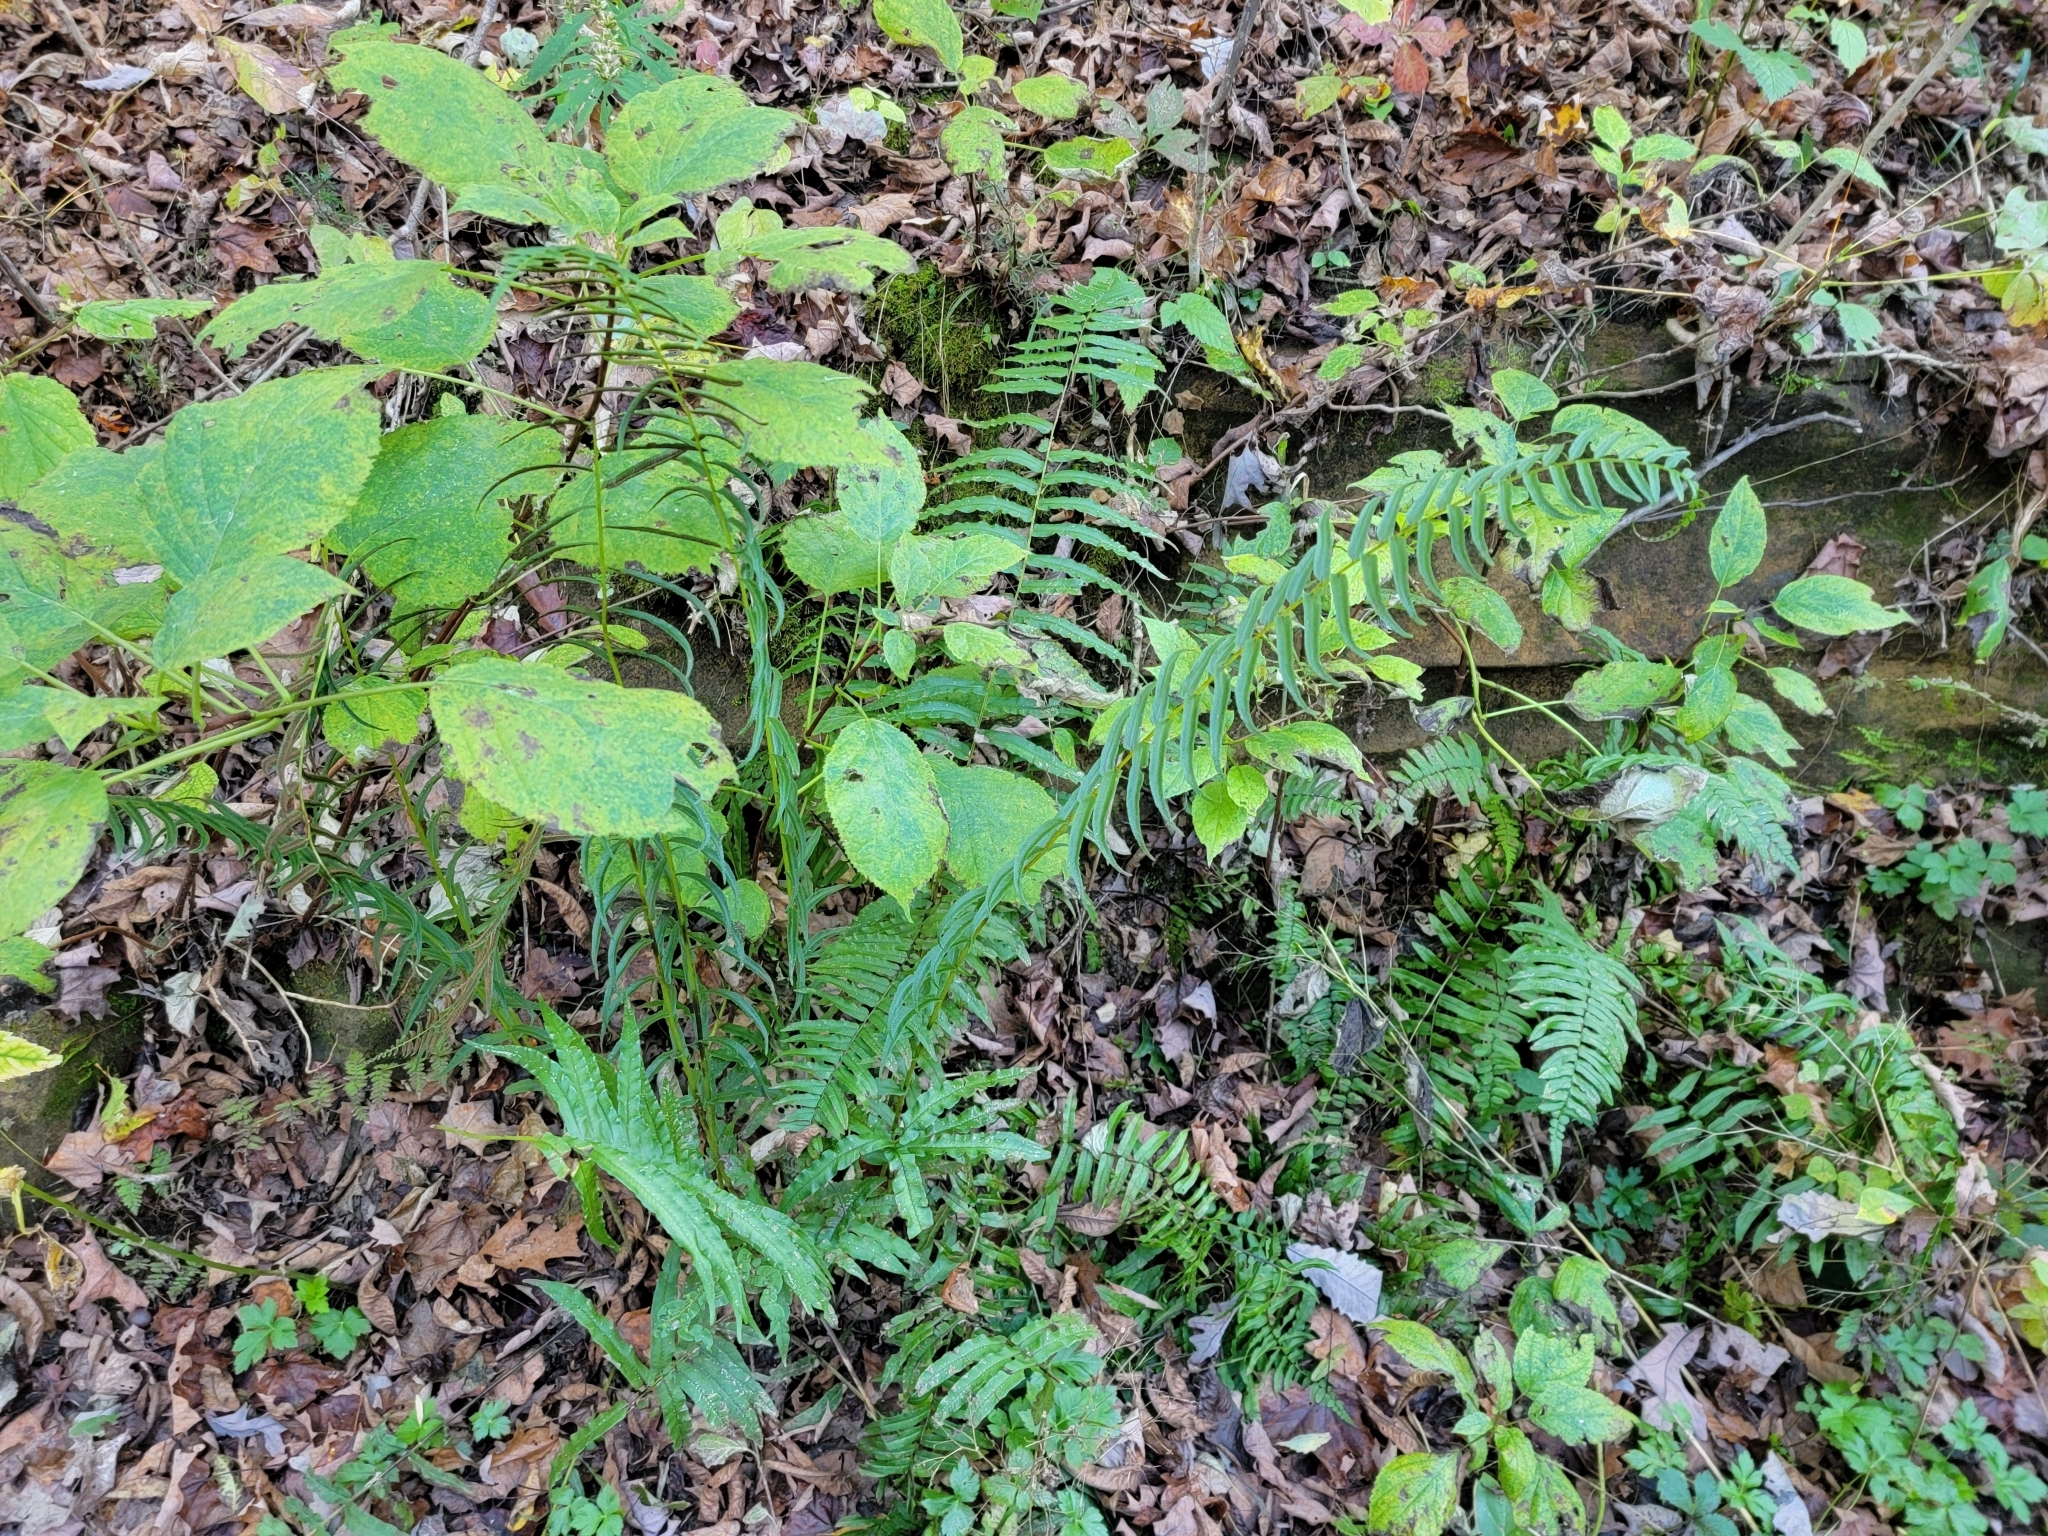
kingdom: Plantae
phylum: Tracheophyta
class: Polypodiopsida
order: Polypodiales
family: Diplaziopsidaceae
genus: Homalosorus
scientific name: Homalosorus pycnocarpos
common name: Glade fern
